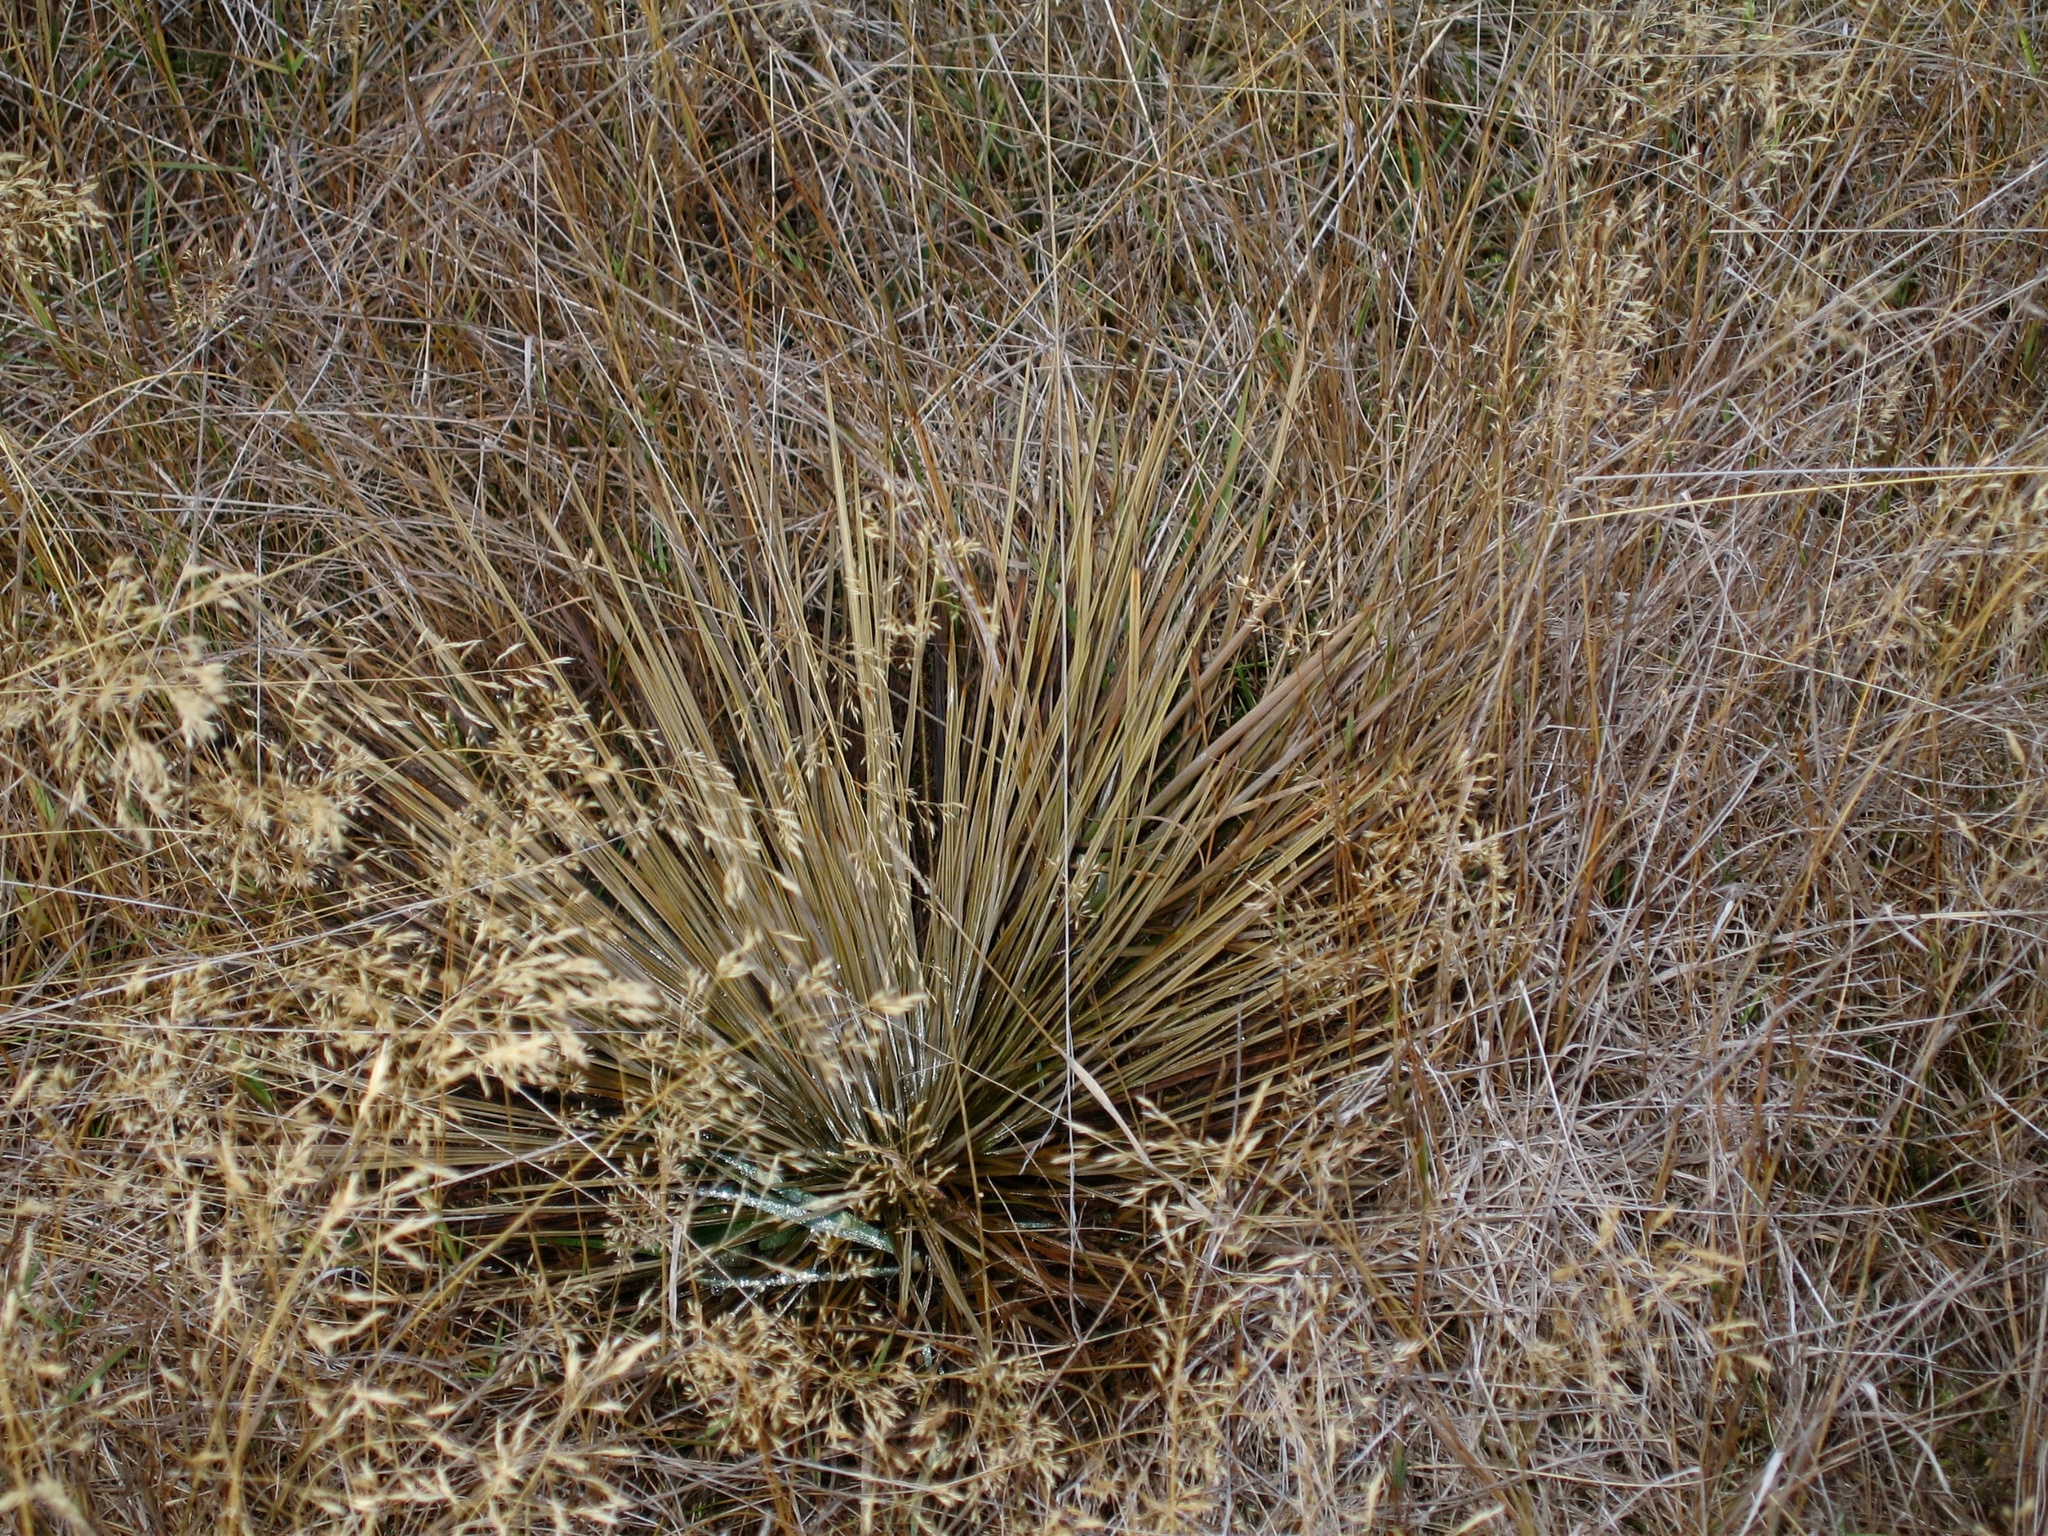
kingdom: Plantae
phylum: Tracheophyta
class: Magnoliopsida
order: Apiales
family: Apiaceae
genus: Aciphylla
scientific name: Aciphylla subflabellata
